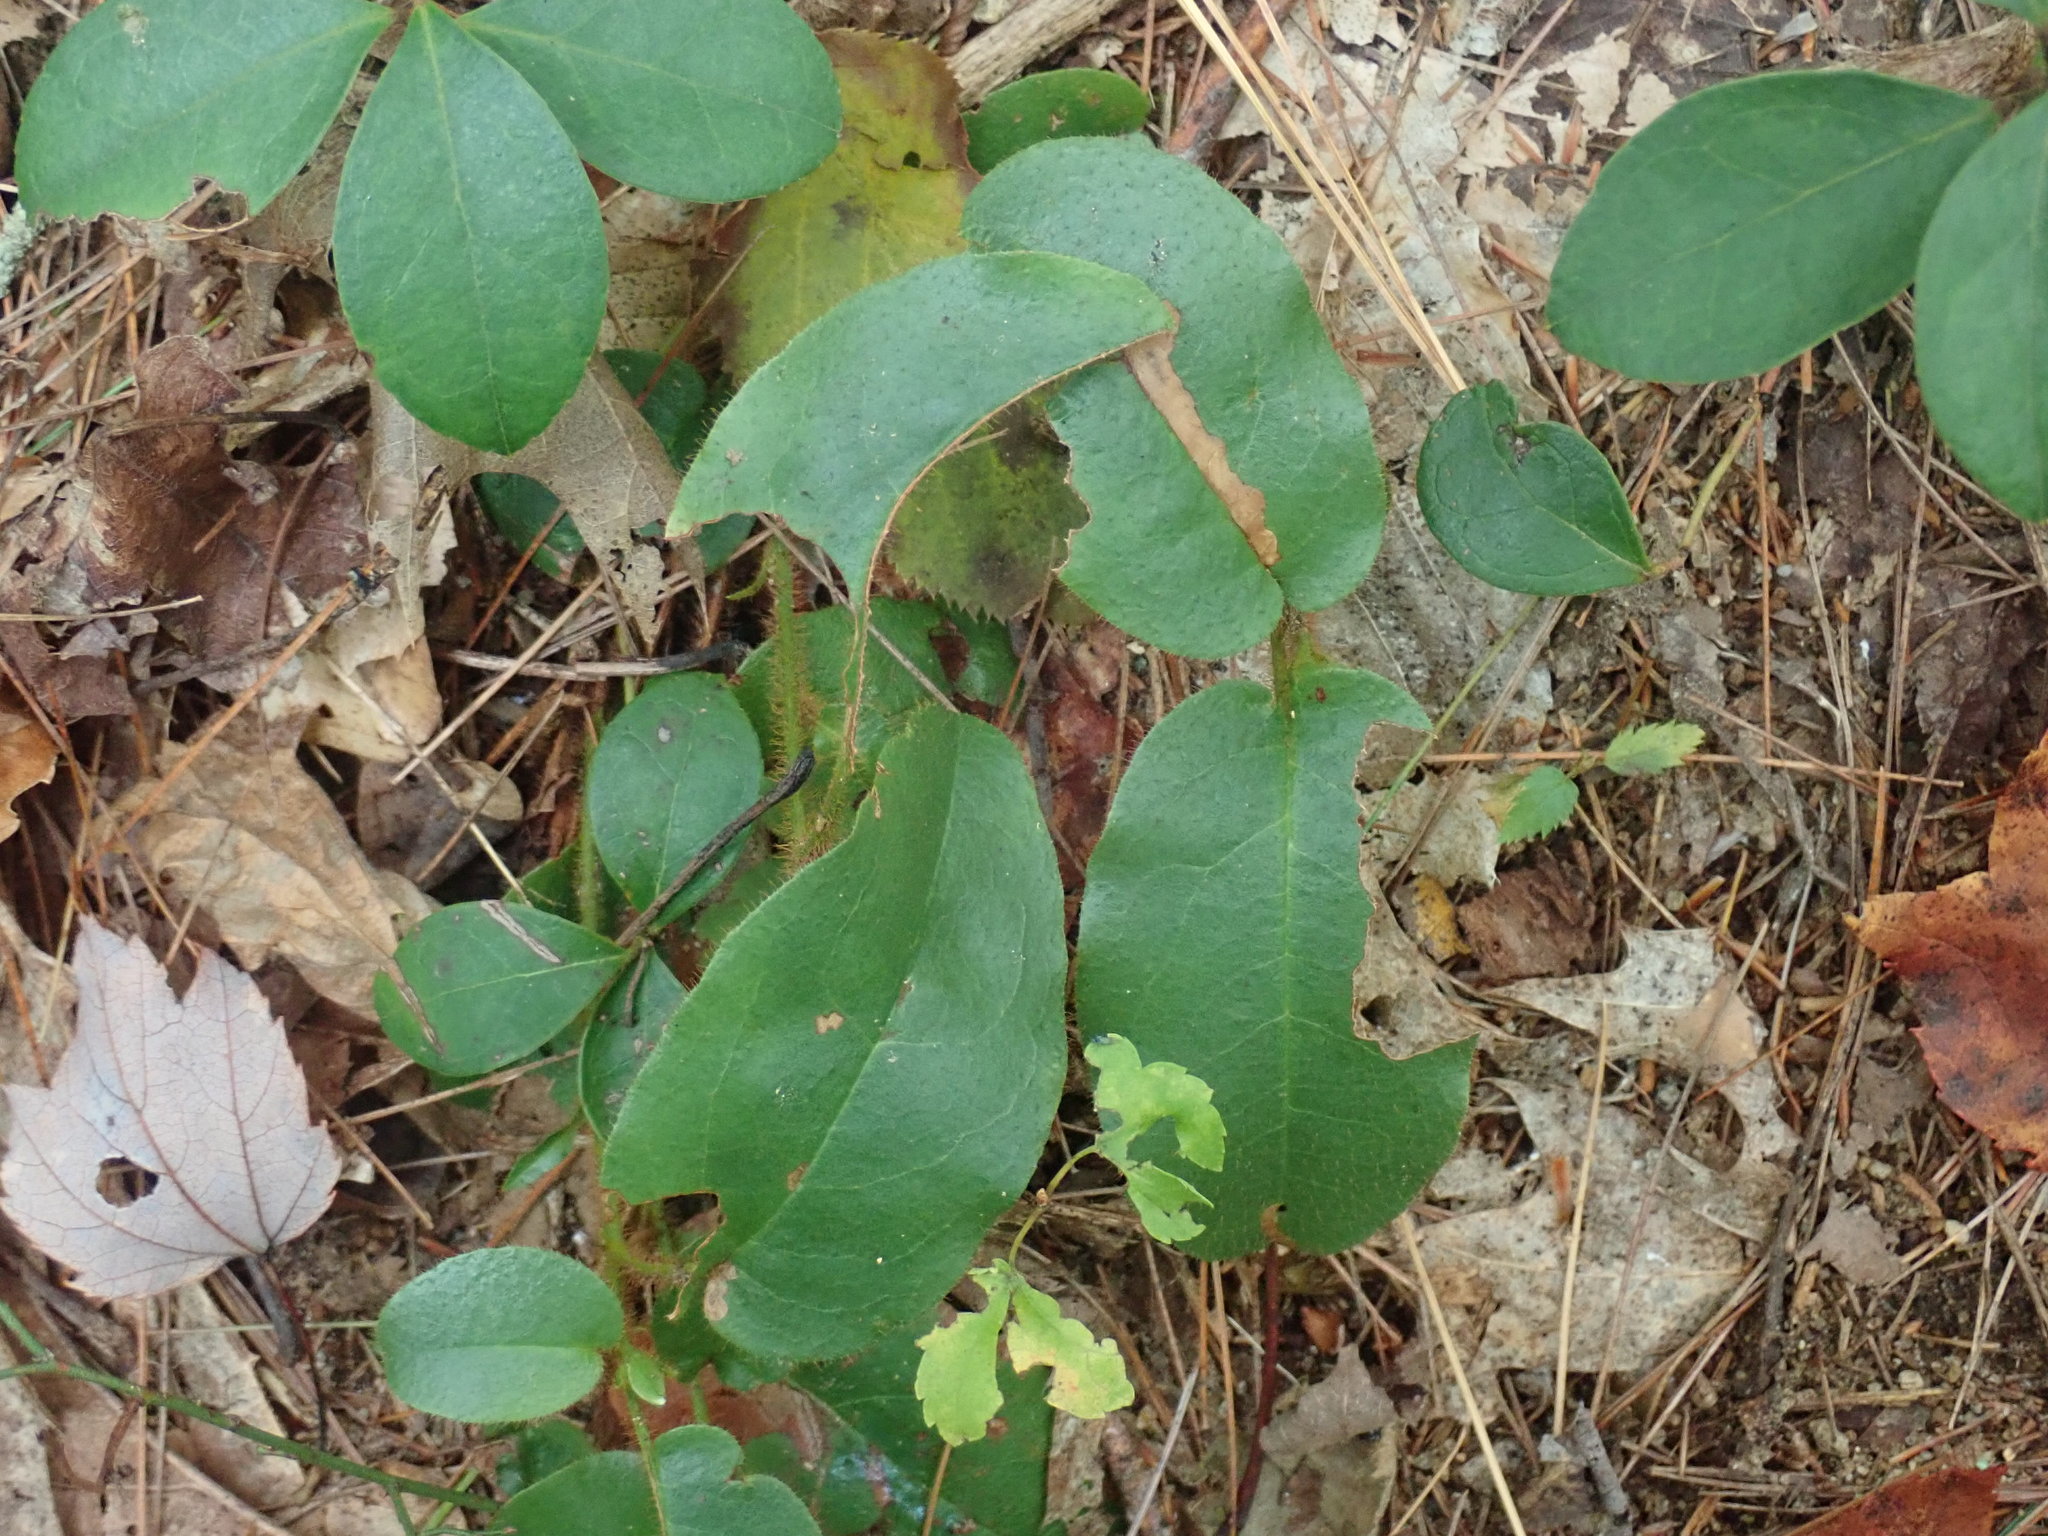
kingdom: Plantae
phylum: Tracheophyta
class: Magnoliopsida
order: Ericales
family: Ericaceae
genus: Epigaea
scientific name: Epigaea repens
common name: Gravelroot
